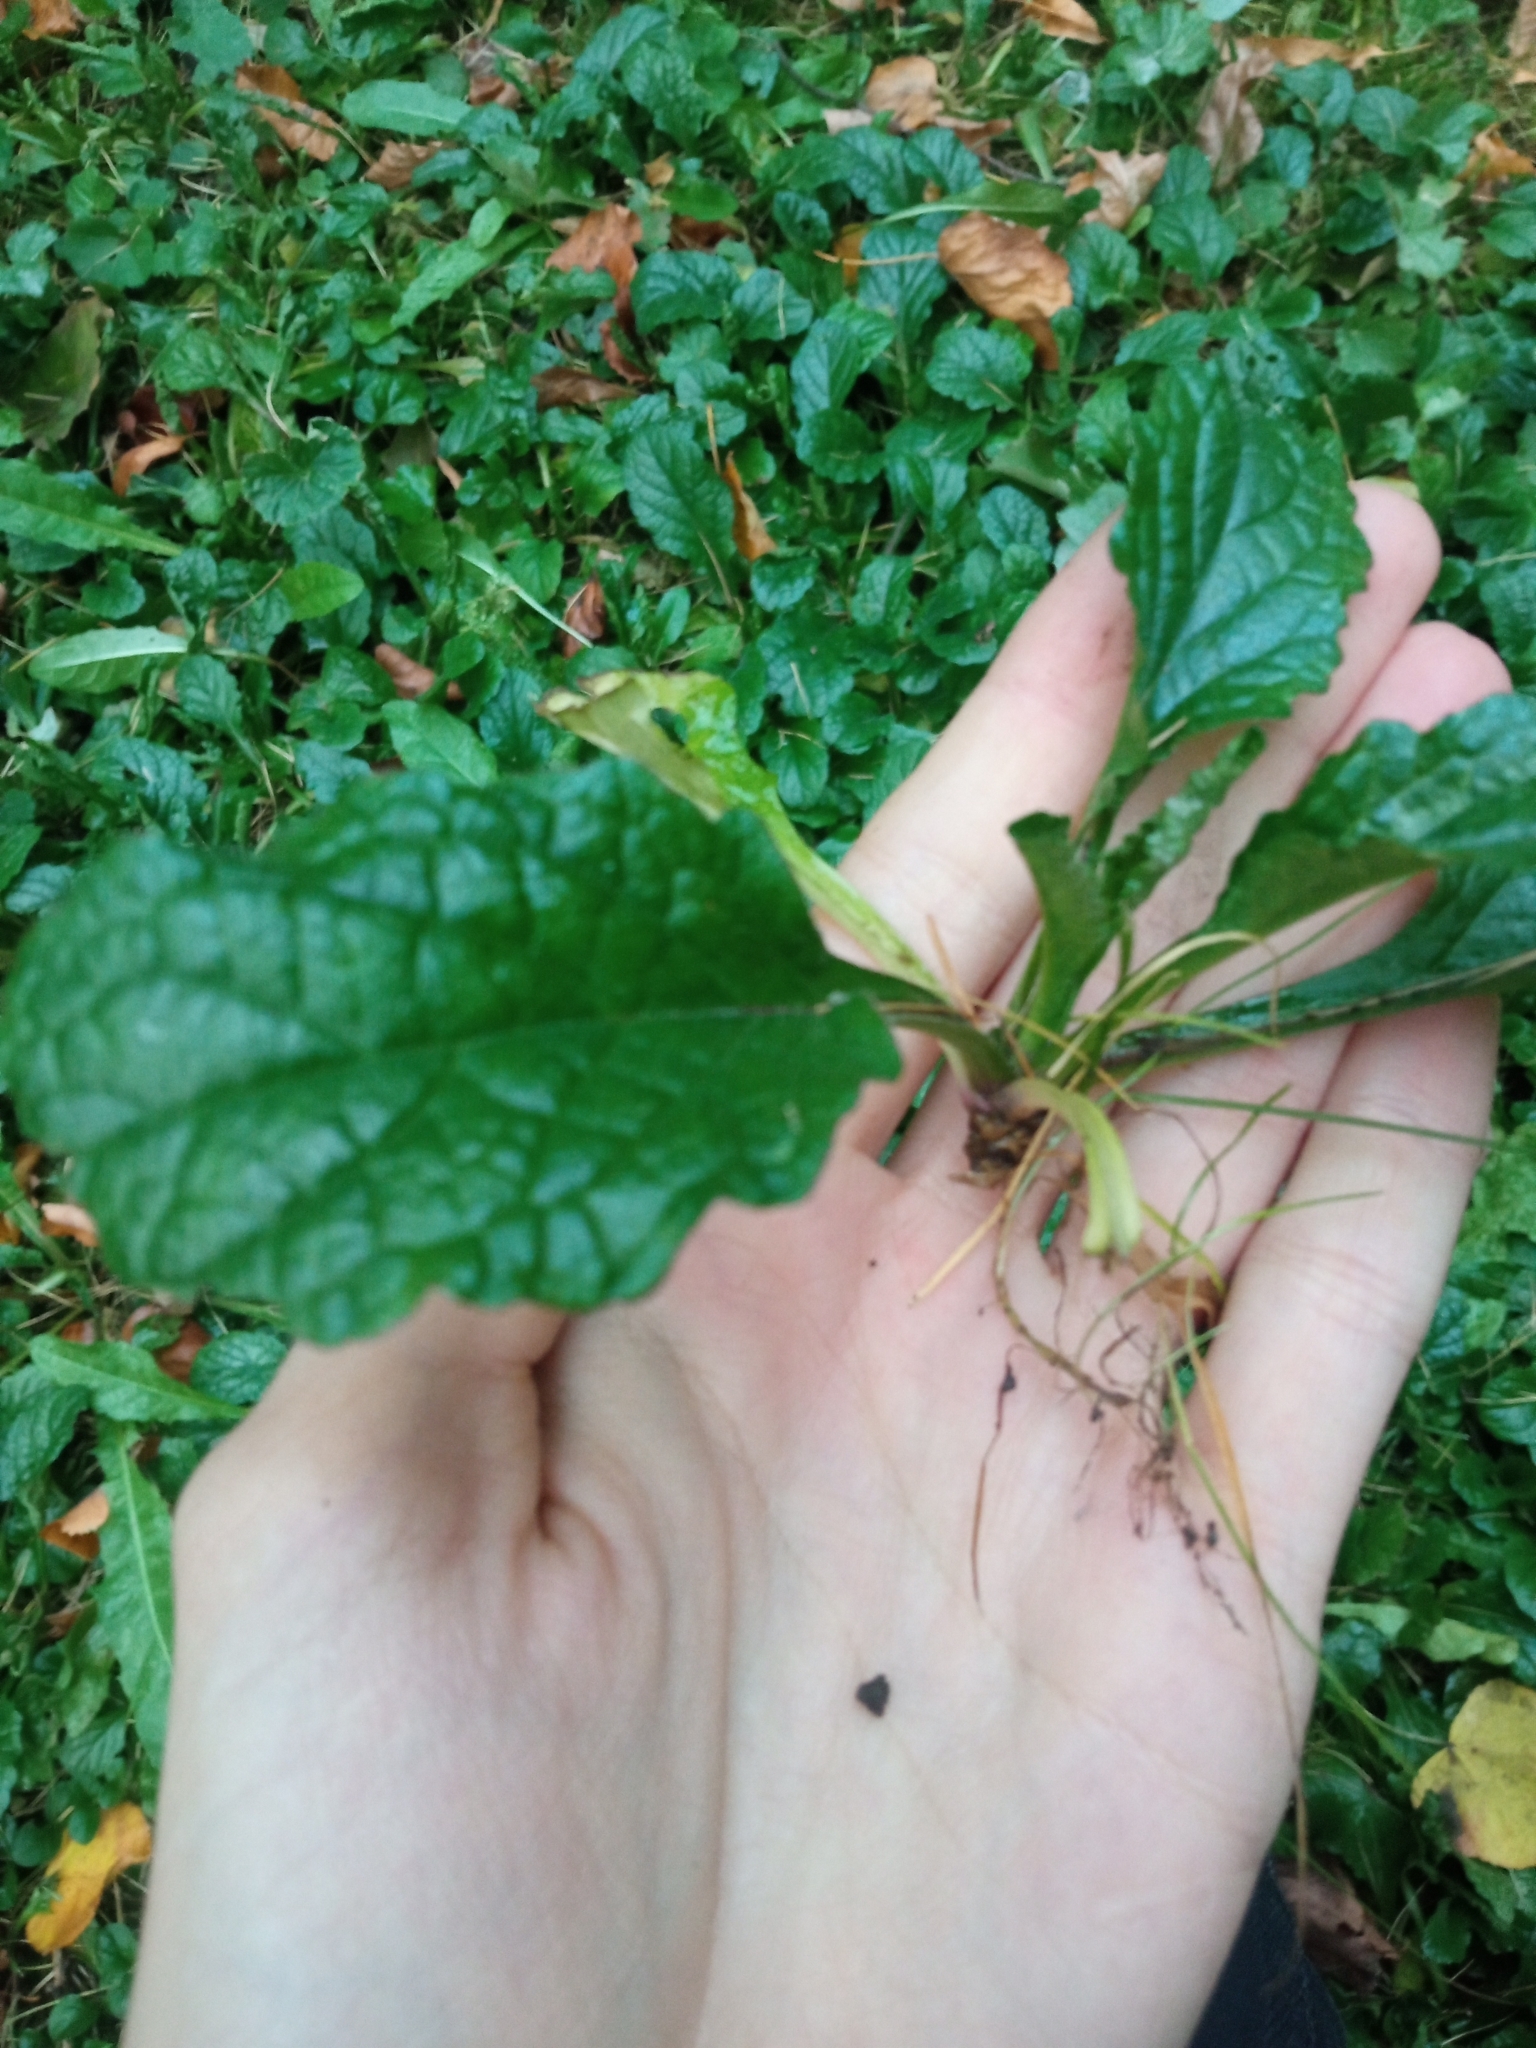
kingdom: Plantae
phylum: Tracheophyta
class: Magnoliopsida
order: Lamiales
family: Lamiaceae
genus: Ajuga
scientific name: Ajuga reptans
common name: Bugle
